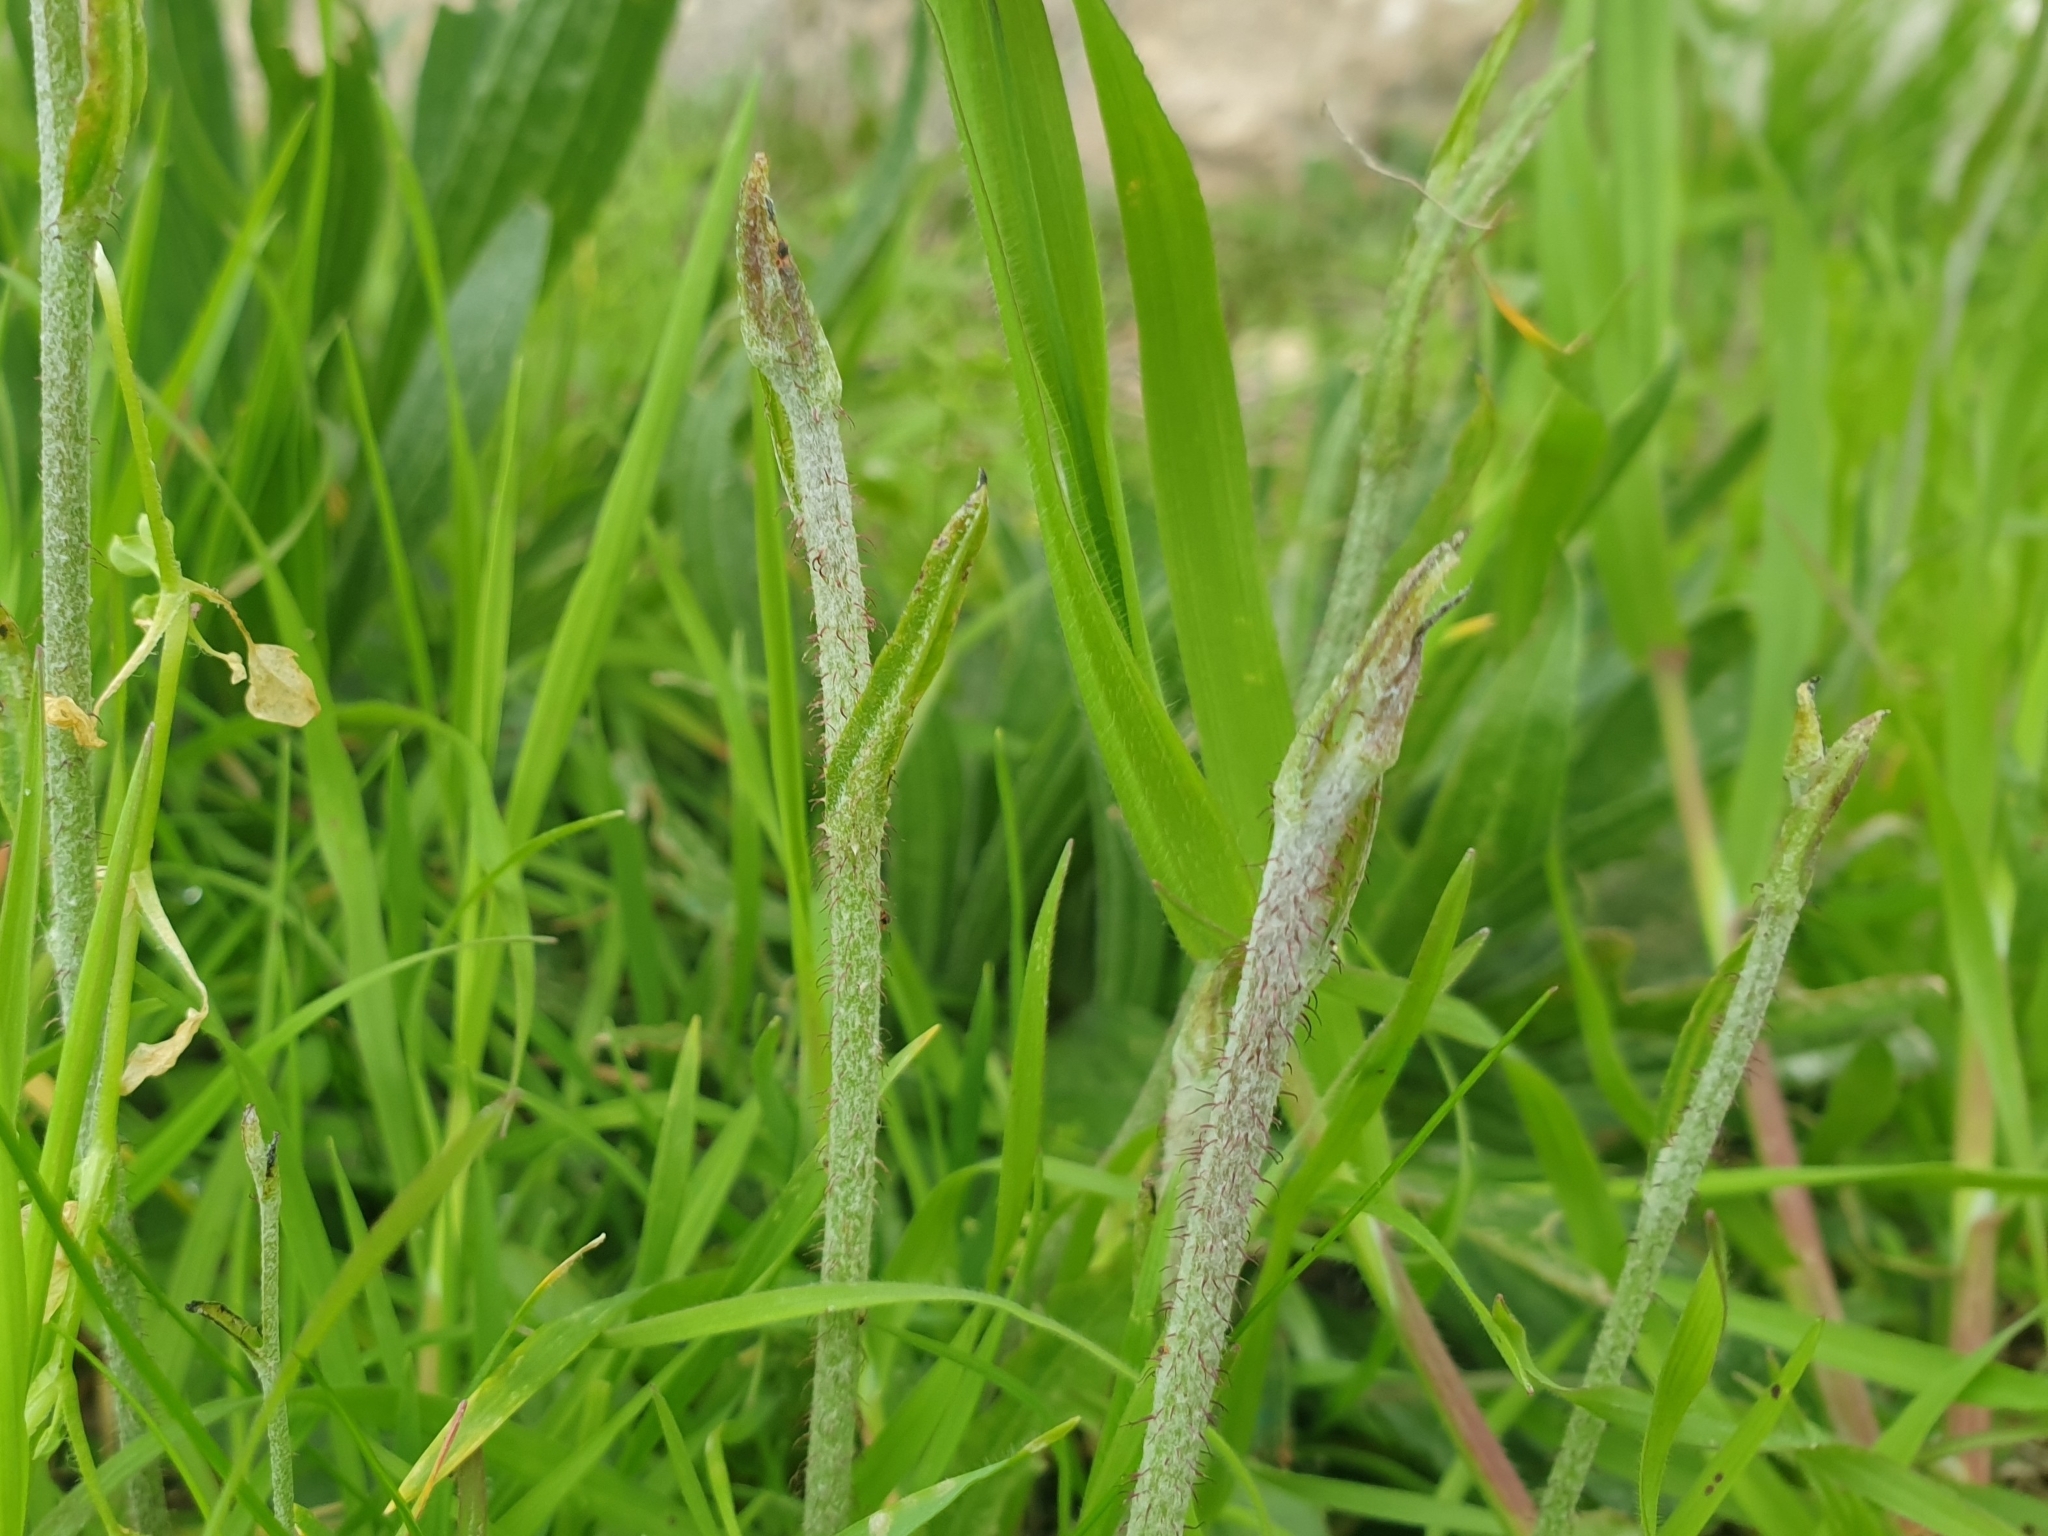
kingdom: Plantae
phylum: Tracheophyta
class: Magnoliopsida
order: Asterales
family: Asteraceae
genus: Chondrilla
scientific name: Chondrilla juncea
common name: Skeleton weed
